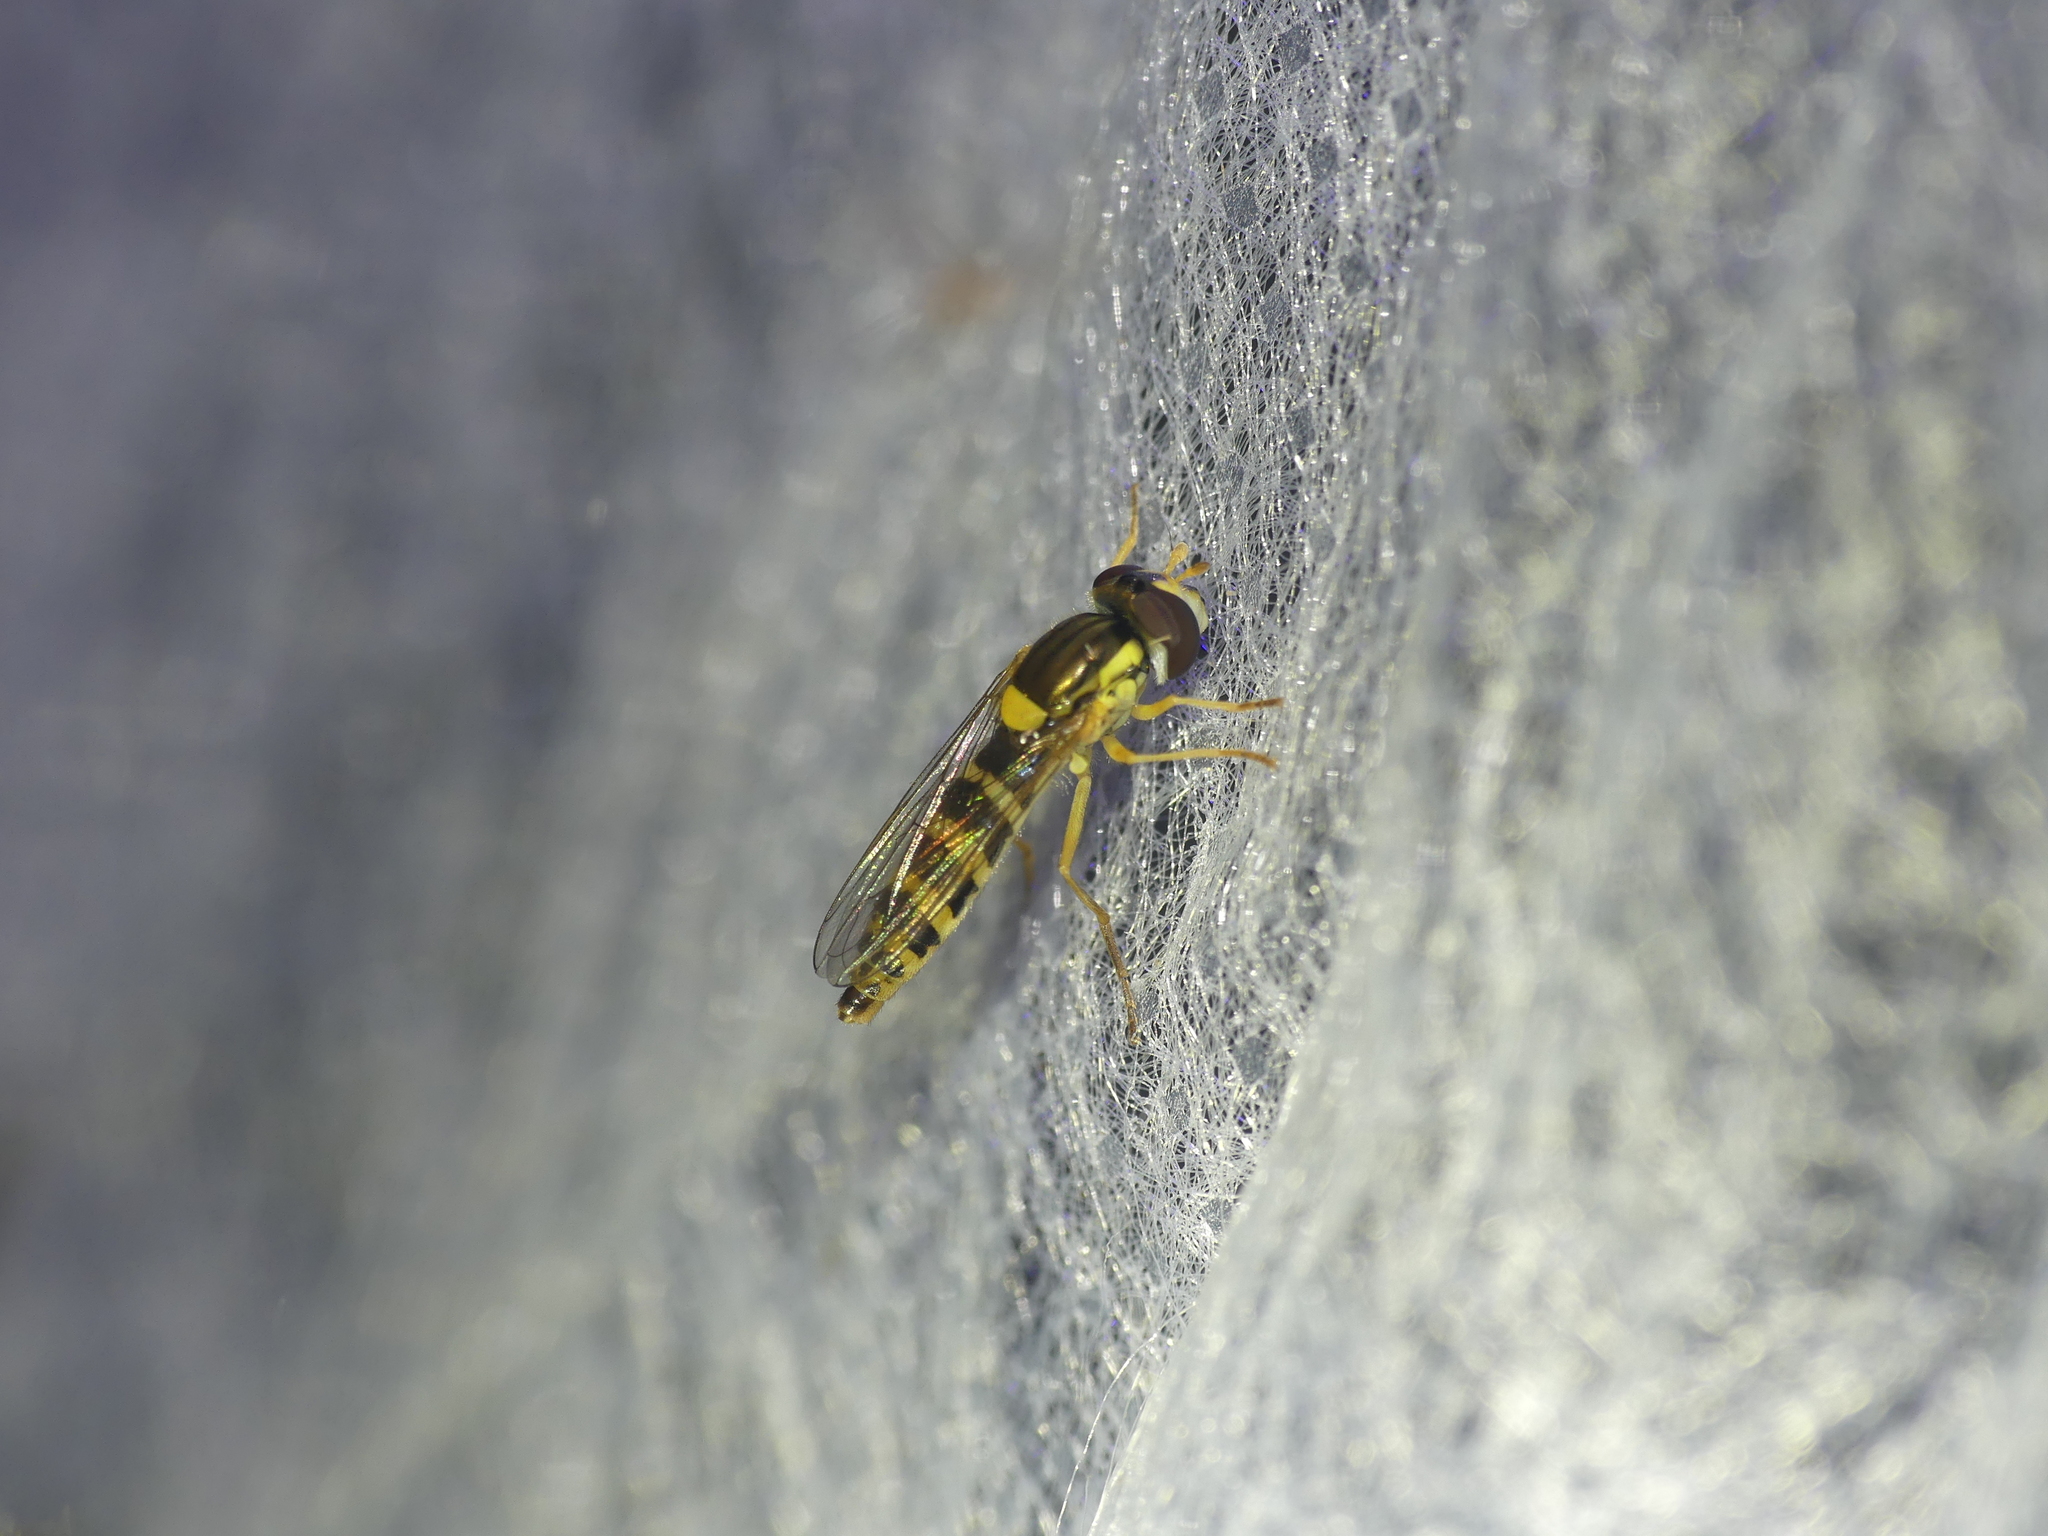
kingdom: Animalia
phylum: Arthropoda
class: Insecta
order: Diptera
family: Syrphidae
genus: Sphaerophoria
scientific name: Sphaerophoria
